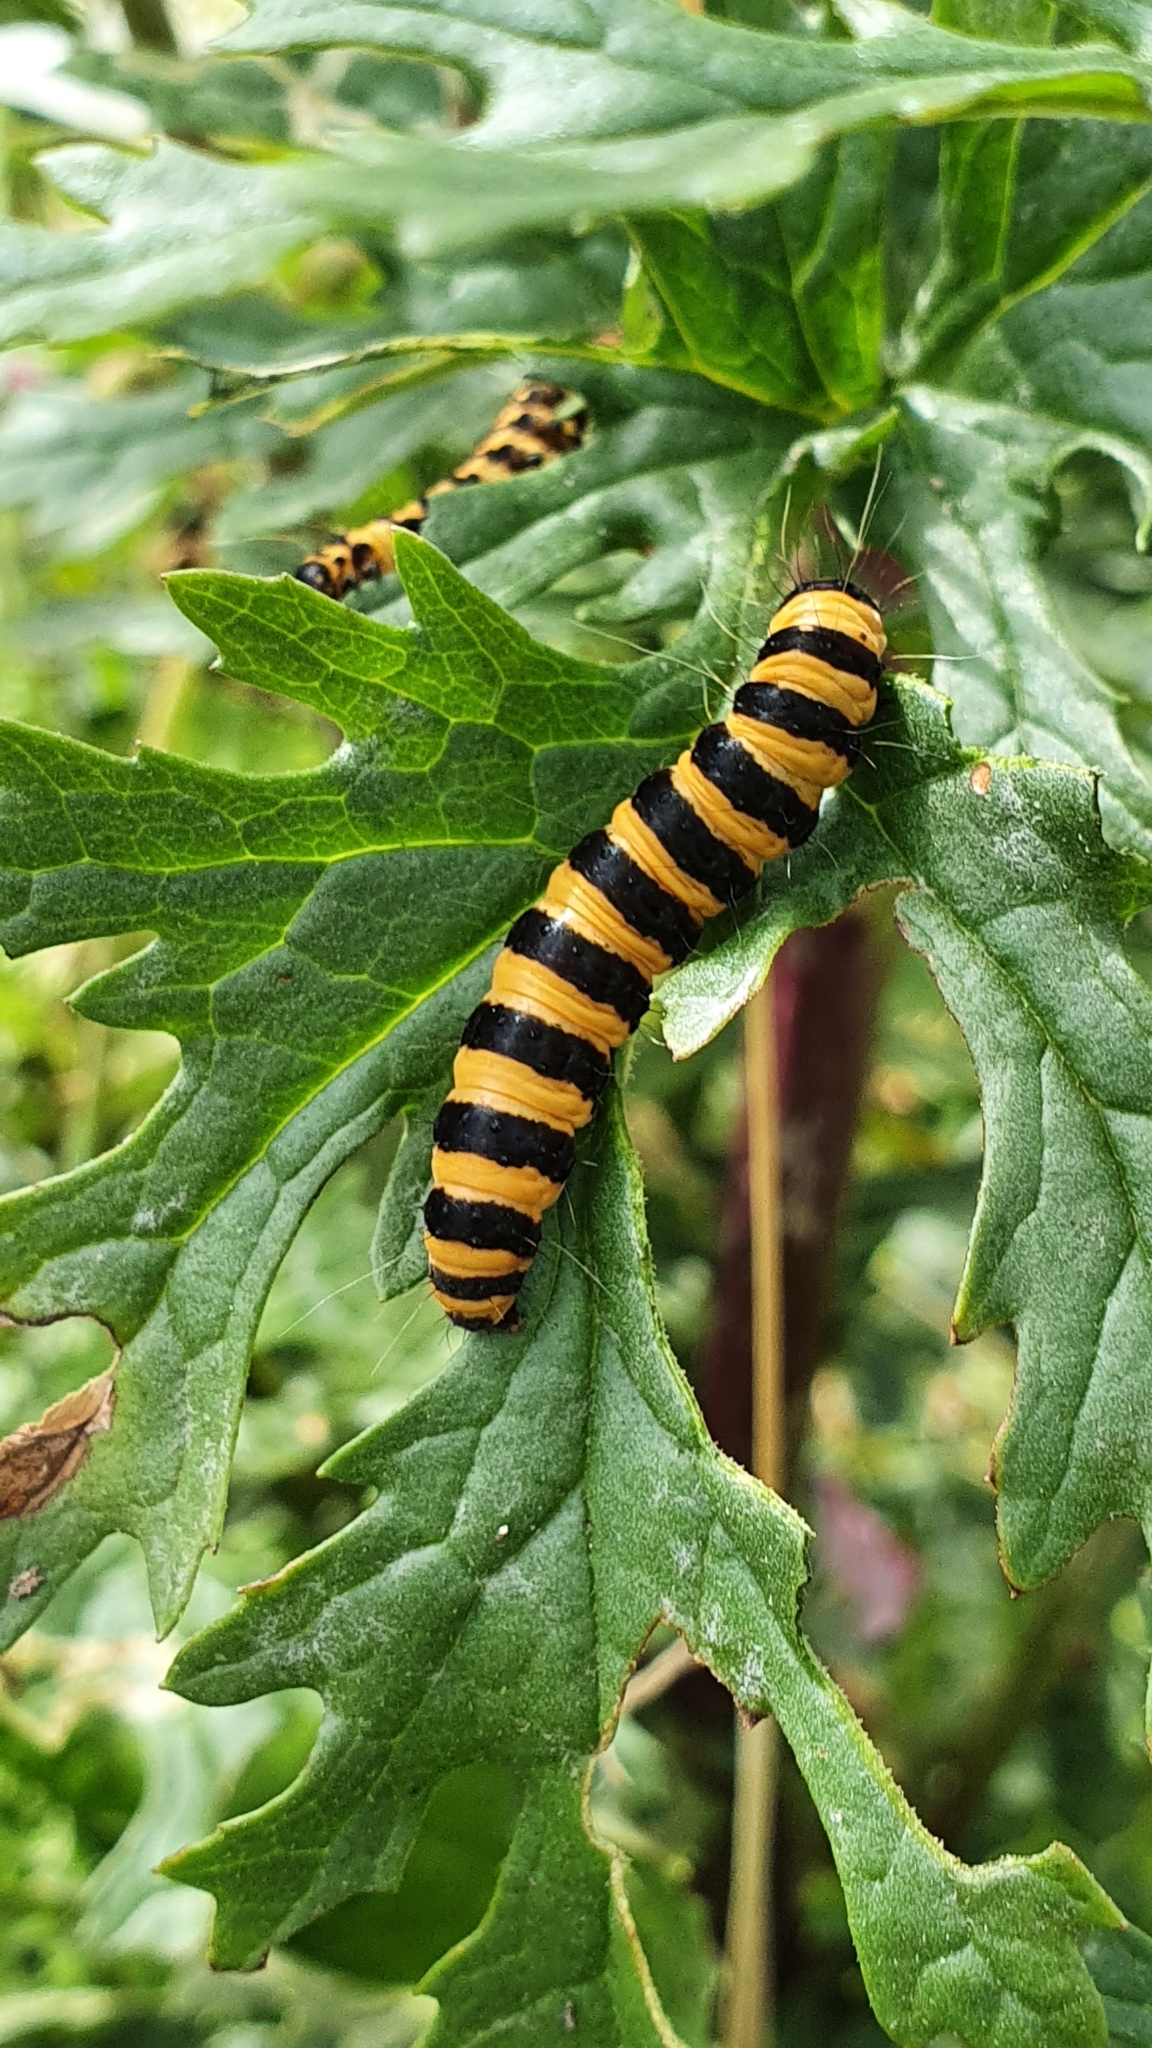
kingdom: Animalia
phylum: Arthropoda
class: Insecta
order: Lepidoptera
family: Erebidae
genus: Tyria
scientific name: Tyria jacobaeae
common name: Cinnabar
